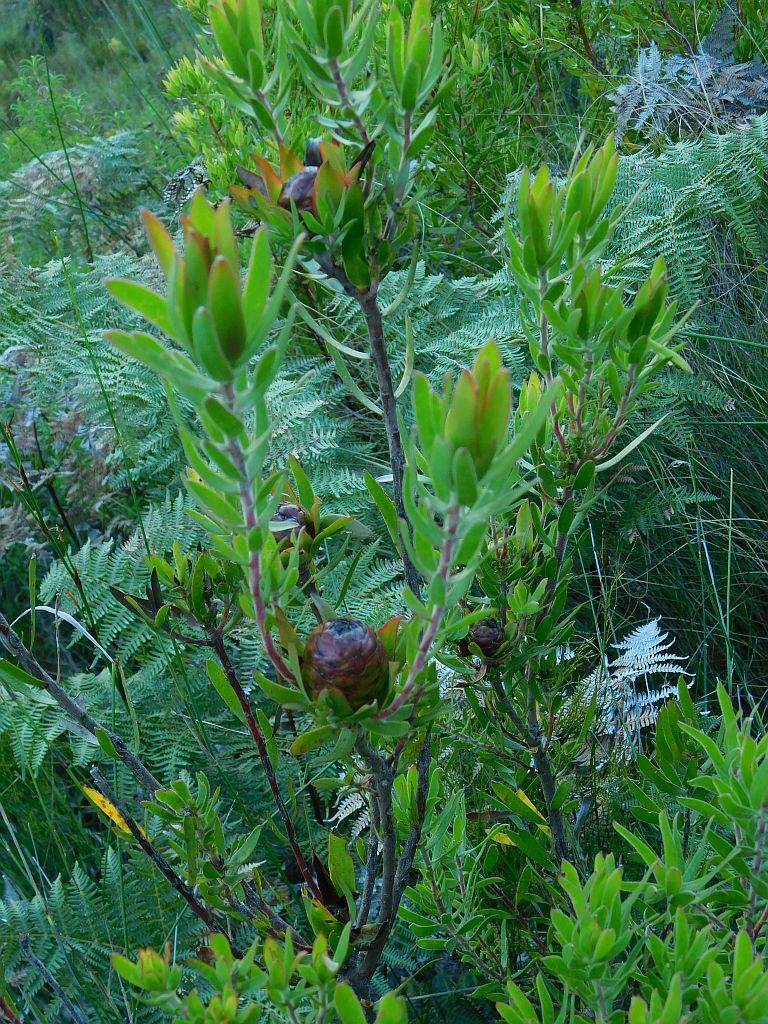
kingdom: Plantae
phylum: Tracheophyta
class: Magnoliopsida
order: Proteales
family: Proteaceae
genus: Leucadendron
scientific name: Leucadendron spissifolium
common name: Spear-leaf conebush
